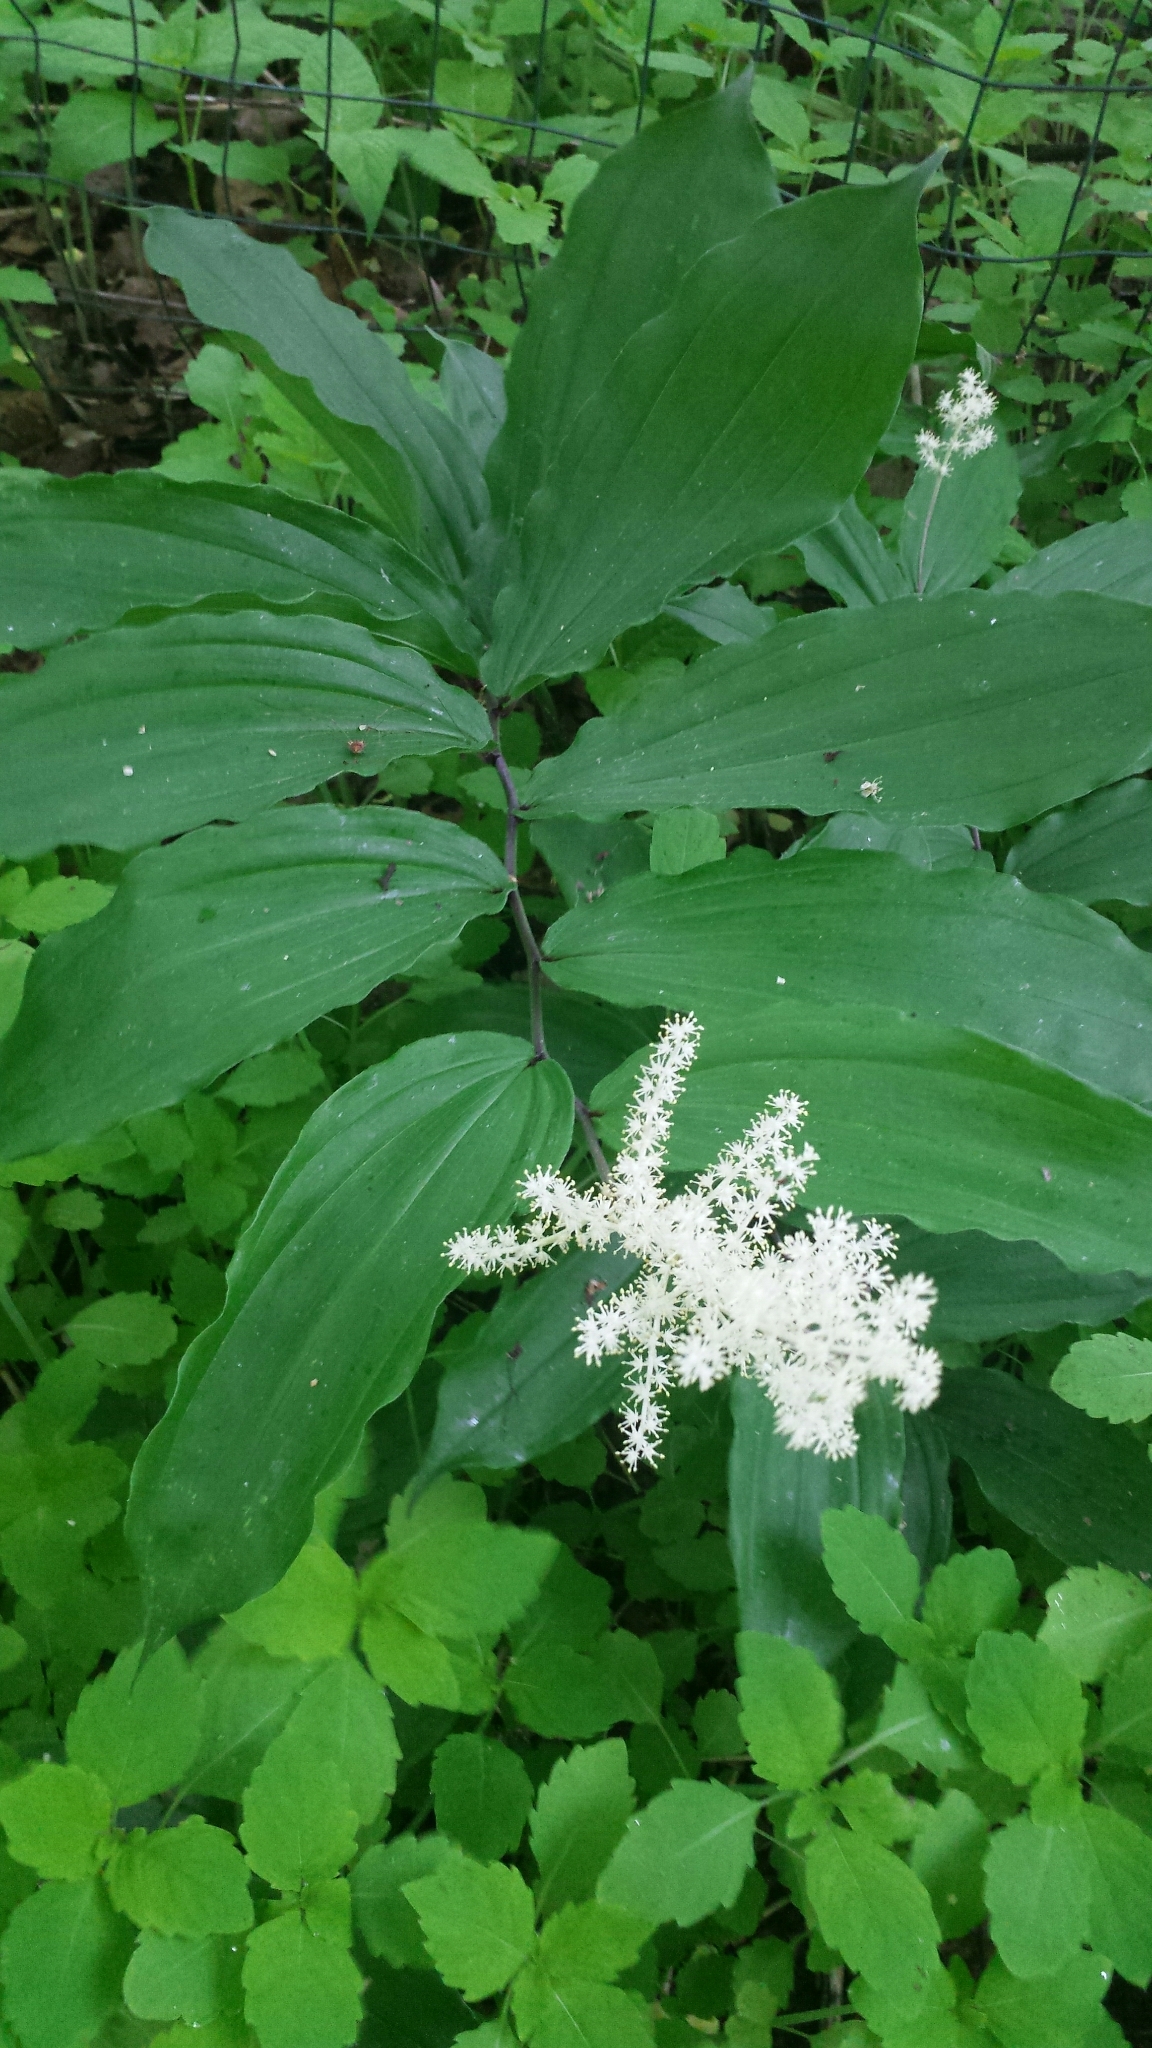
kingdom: Plantae
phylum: Tracheophyta
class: Liliopsida
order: Asparagales
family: Asparagaceae
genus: Maianthemum
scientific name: Maianthemum racemosum
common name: False spikenard
